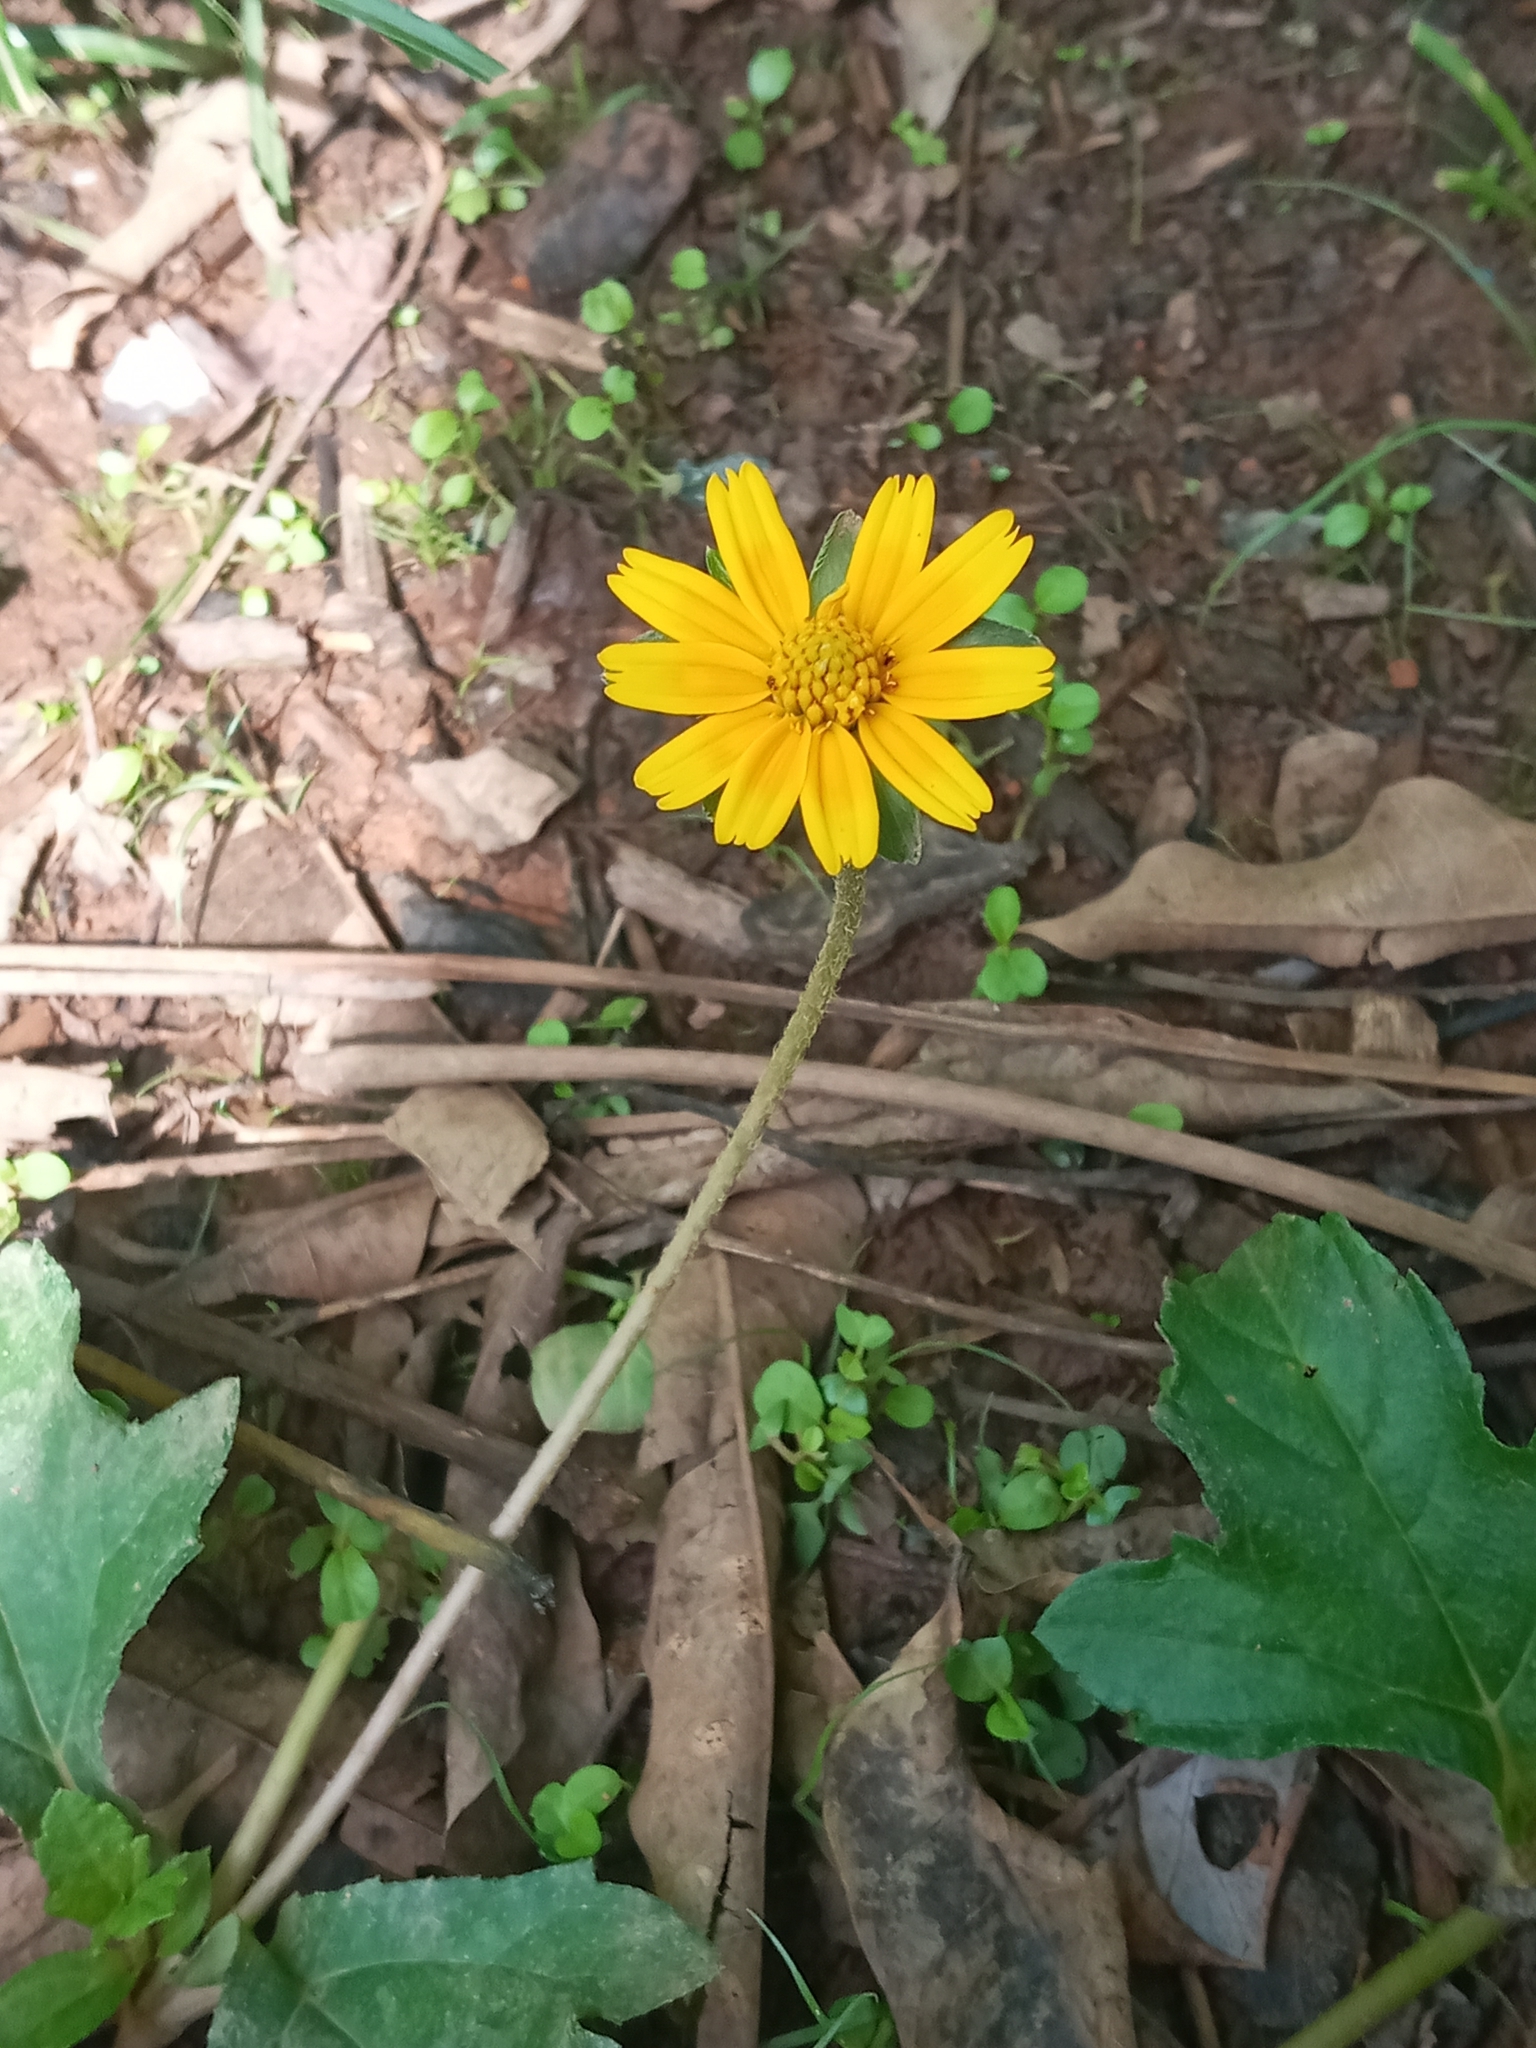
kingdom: Plantae
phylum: Tracheophyta
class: Magnoliopsida
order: Asterales
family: Asteraceae
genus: Sphagneticola
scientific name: Sphagneticola trilobata
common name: Bay biscayne creeping-oxeye
